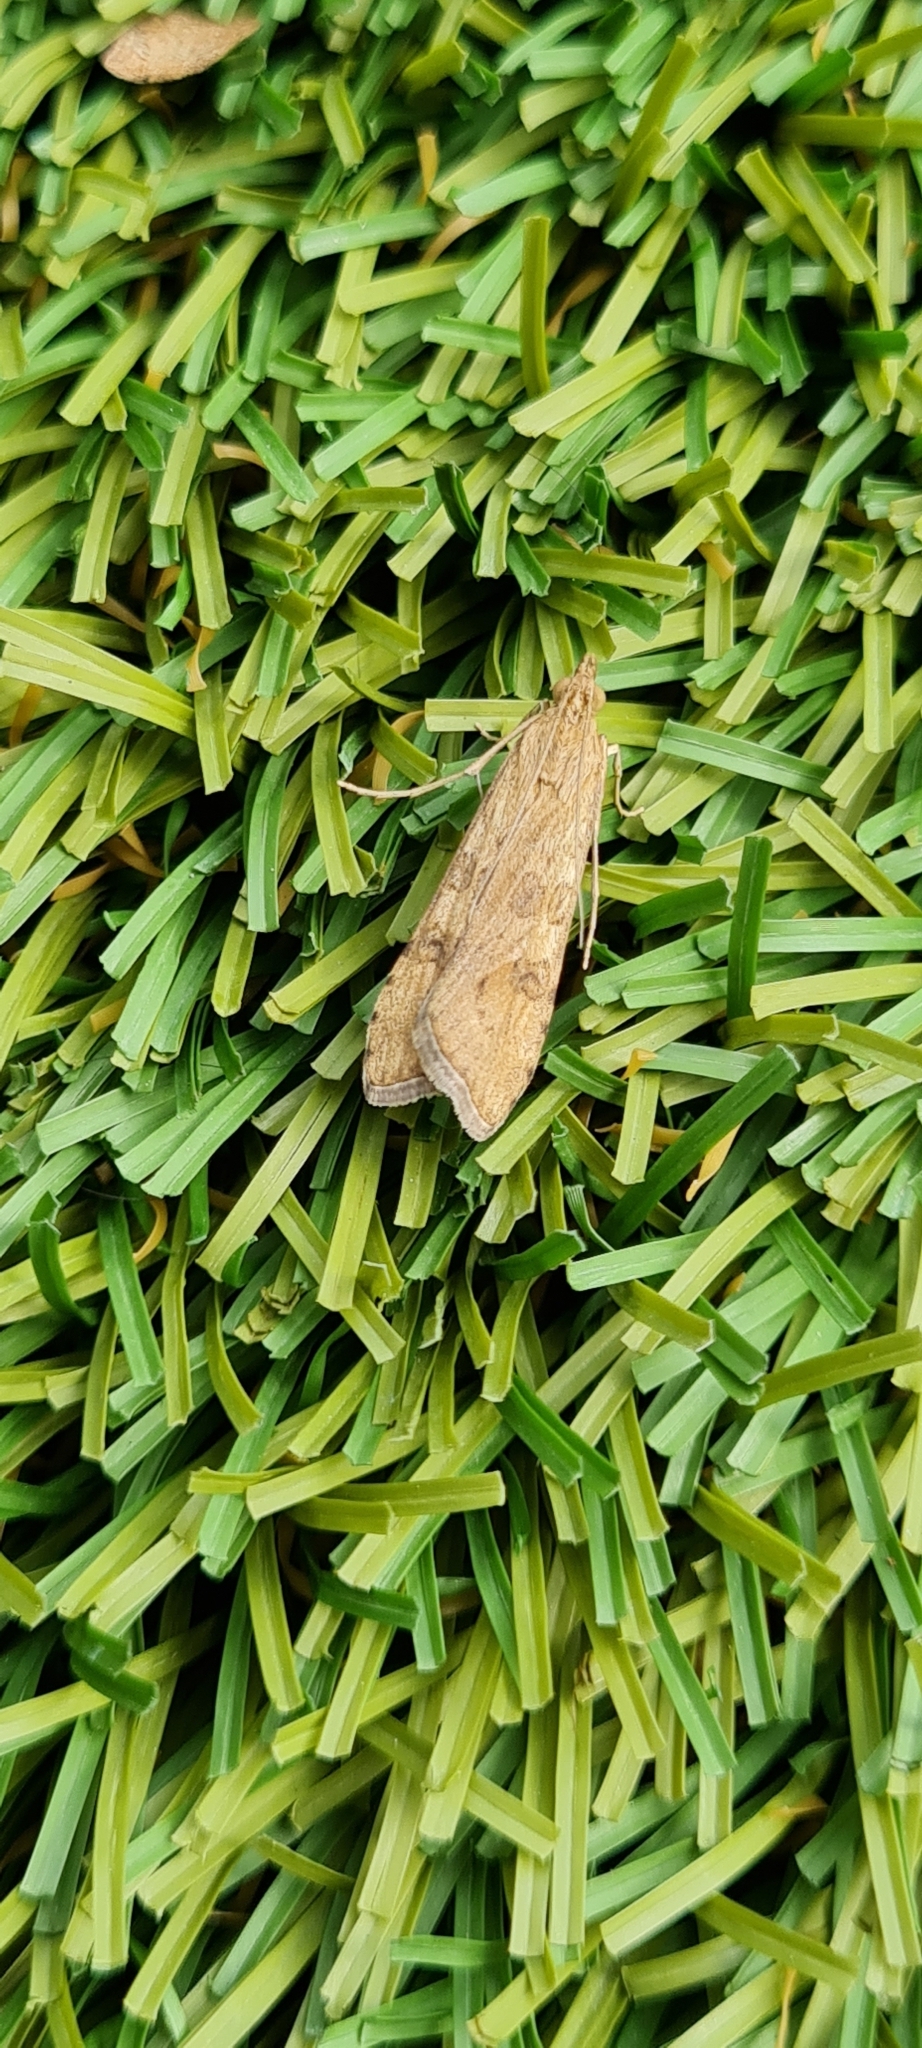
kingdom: Animalia
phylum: Arthropoda
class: Insecta
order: Lepidoptera
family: Crambidae
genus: Nomophila
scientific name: Nomophila noctuella
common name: Rush veneer
